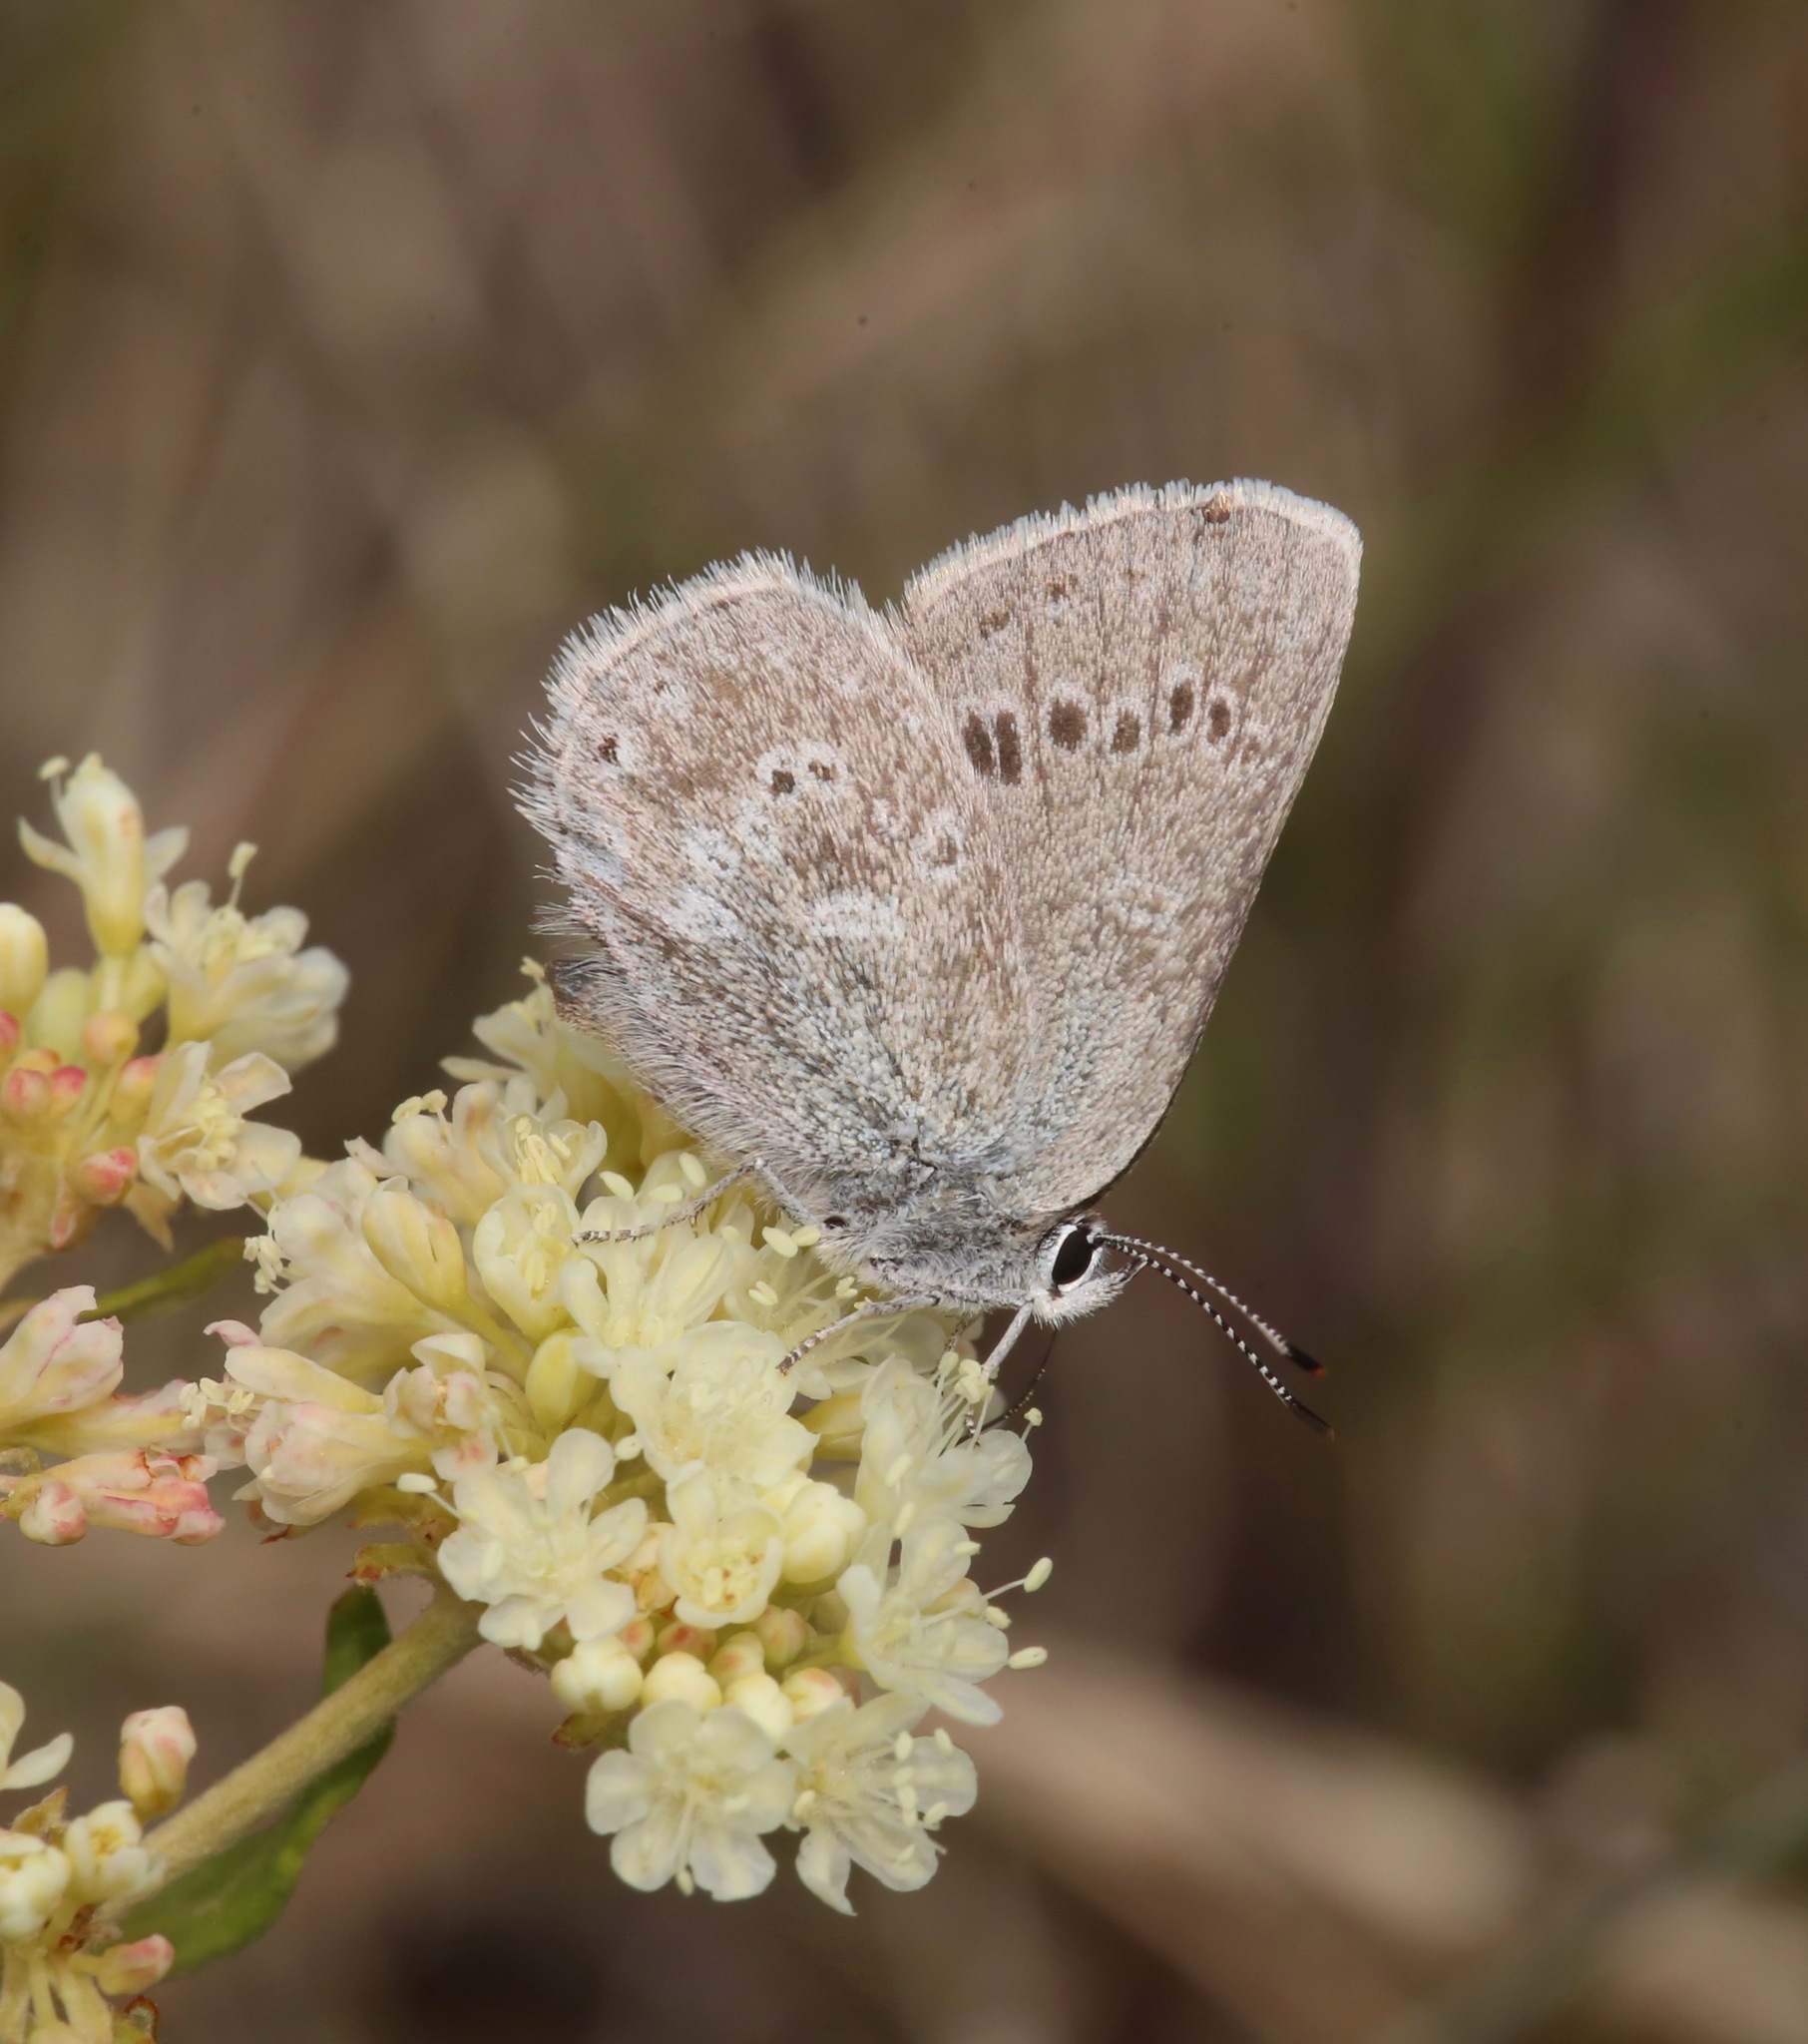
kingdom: Animalia
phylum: Arthropoda
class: Insecta
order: Lepidoptera
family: Lycaenidae
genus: Satyrium
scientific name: Satyrium fuliginosa
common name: Western sooty hairstreak
